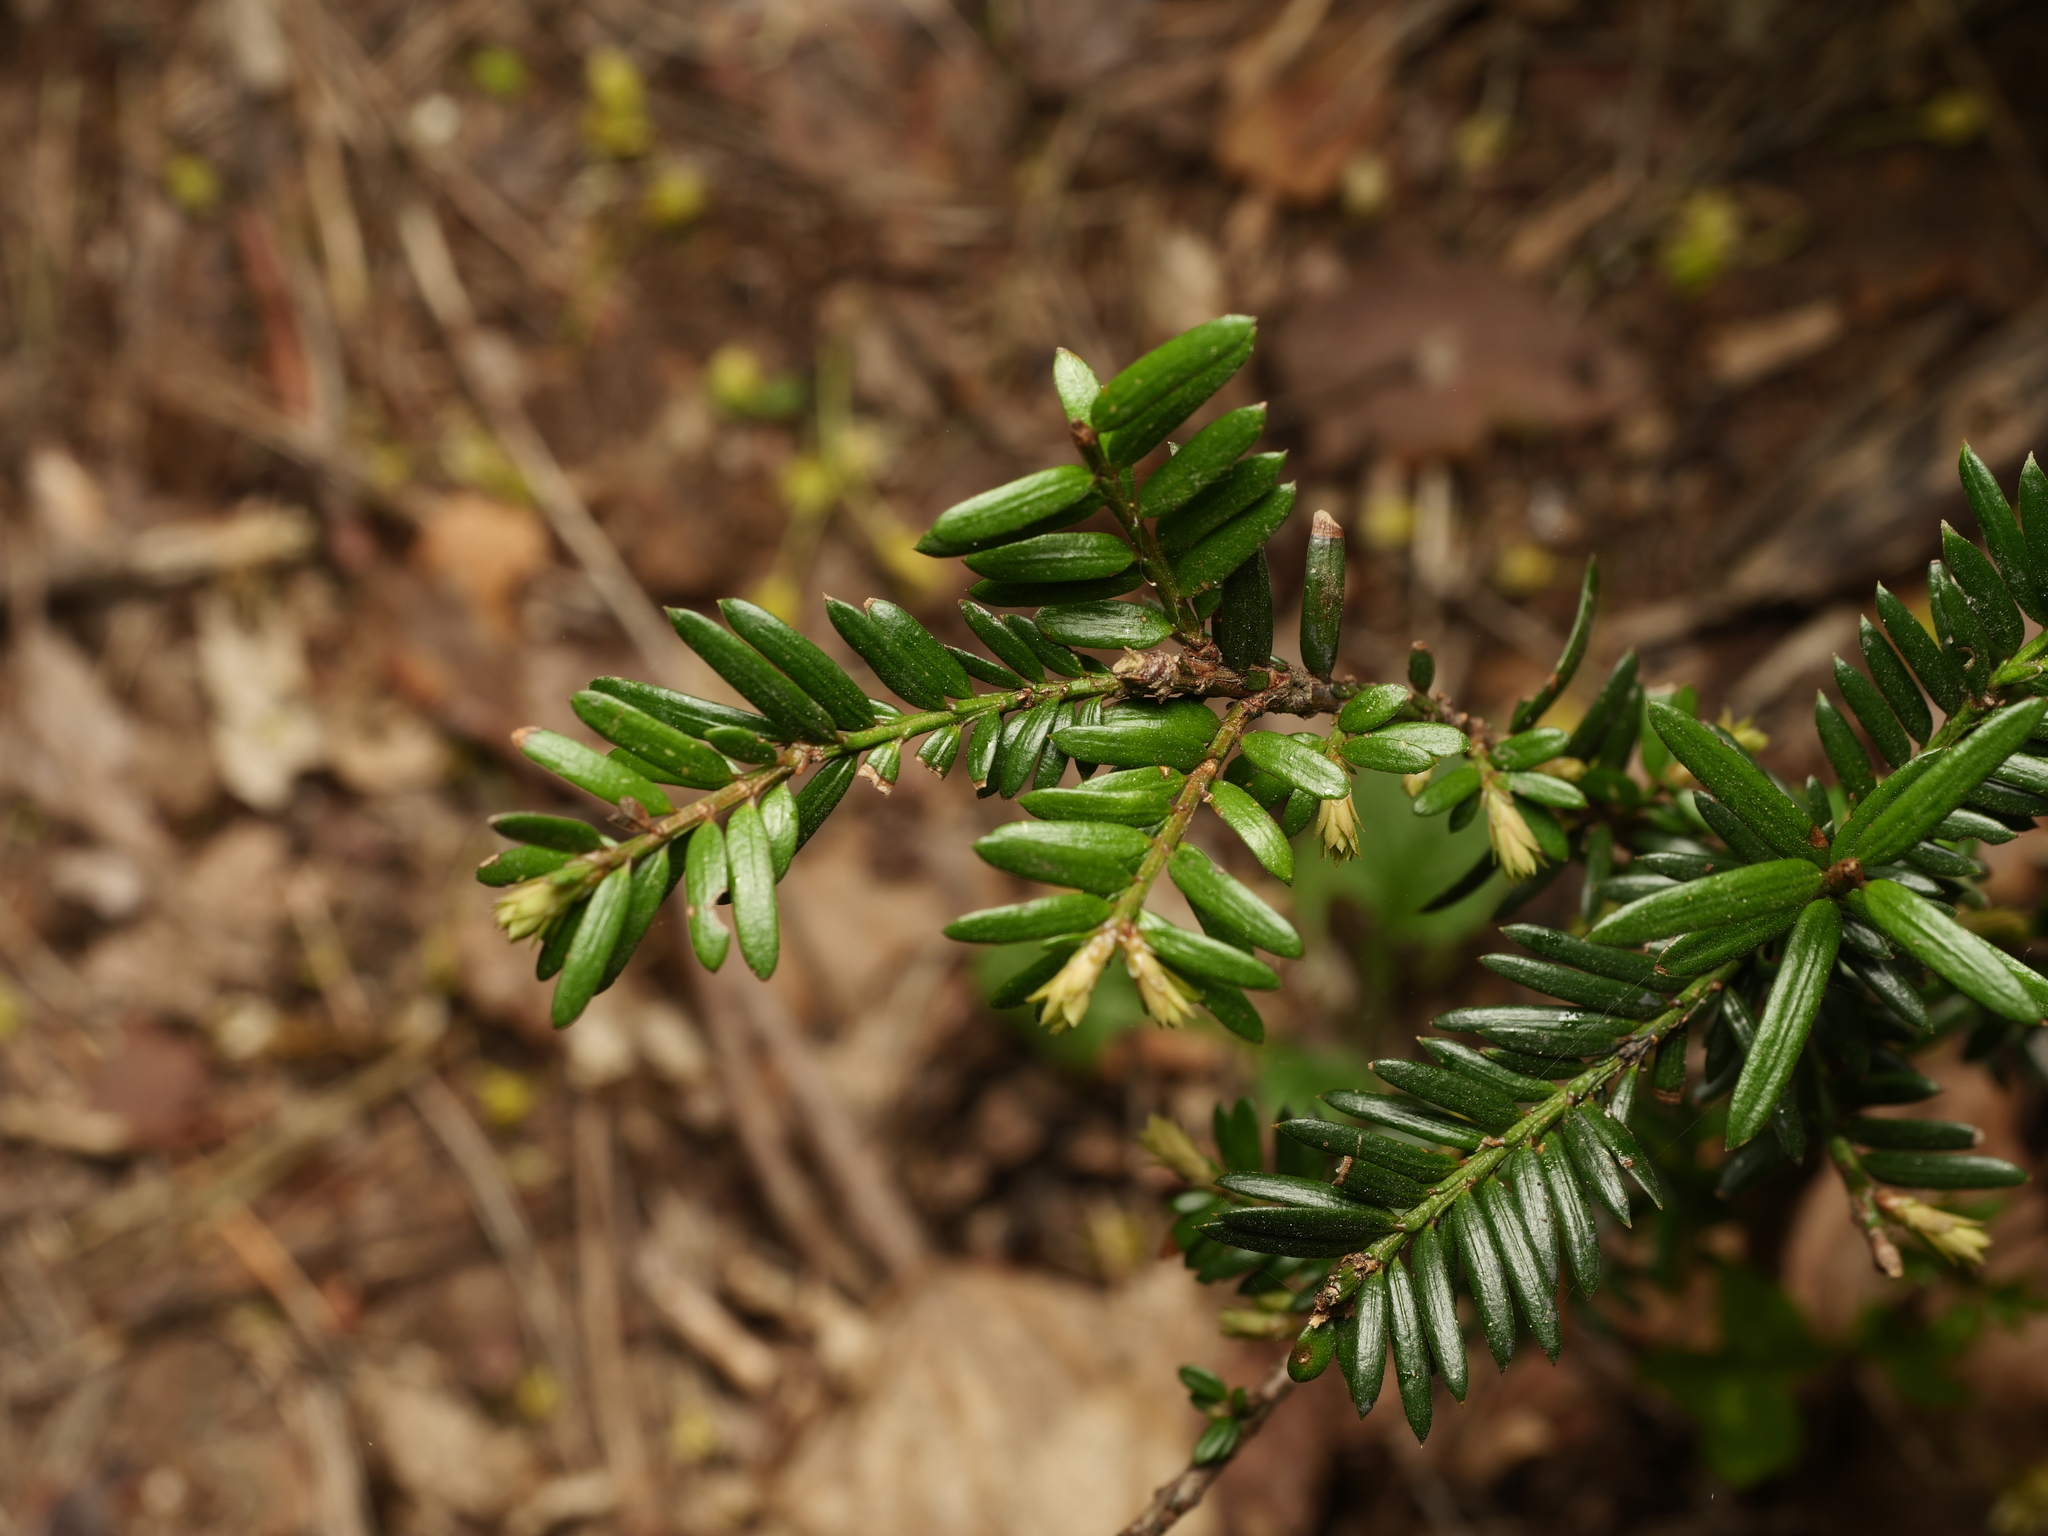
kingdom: Plantae
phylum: Tracheophyta
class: Pinopsida
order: Pinales
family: Taxaceae
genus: Taxus
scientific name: Taxus baccata
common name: Yew
